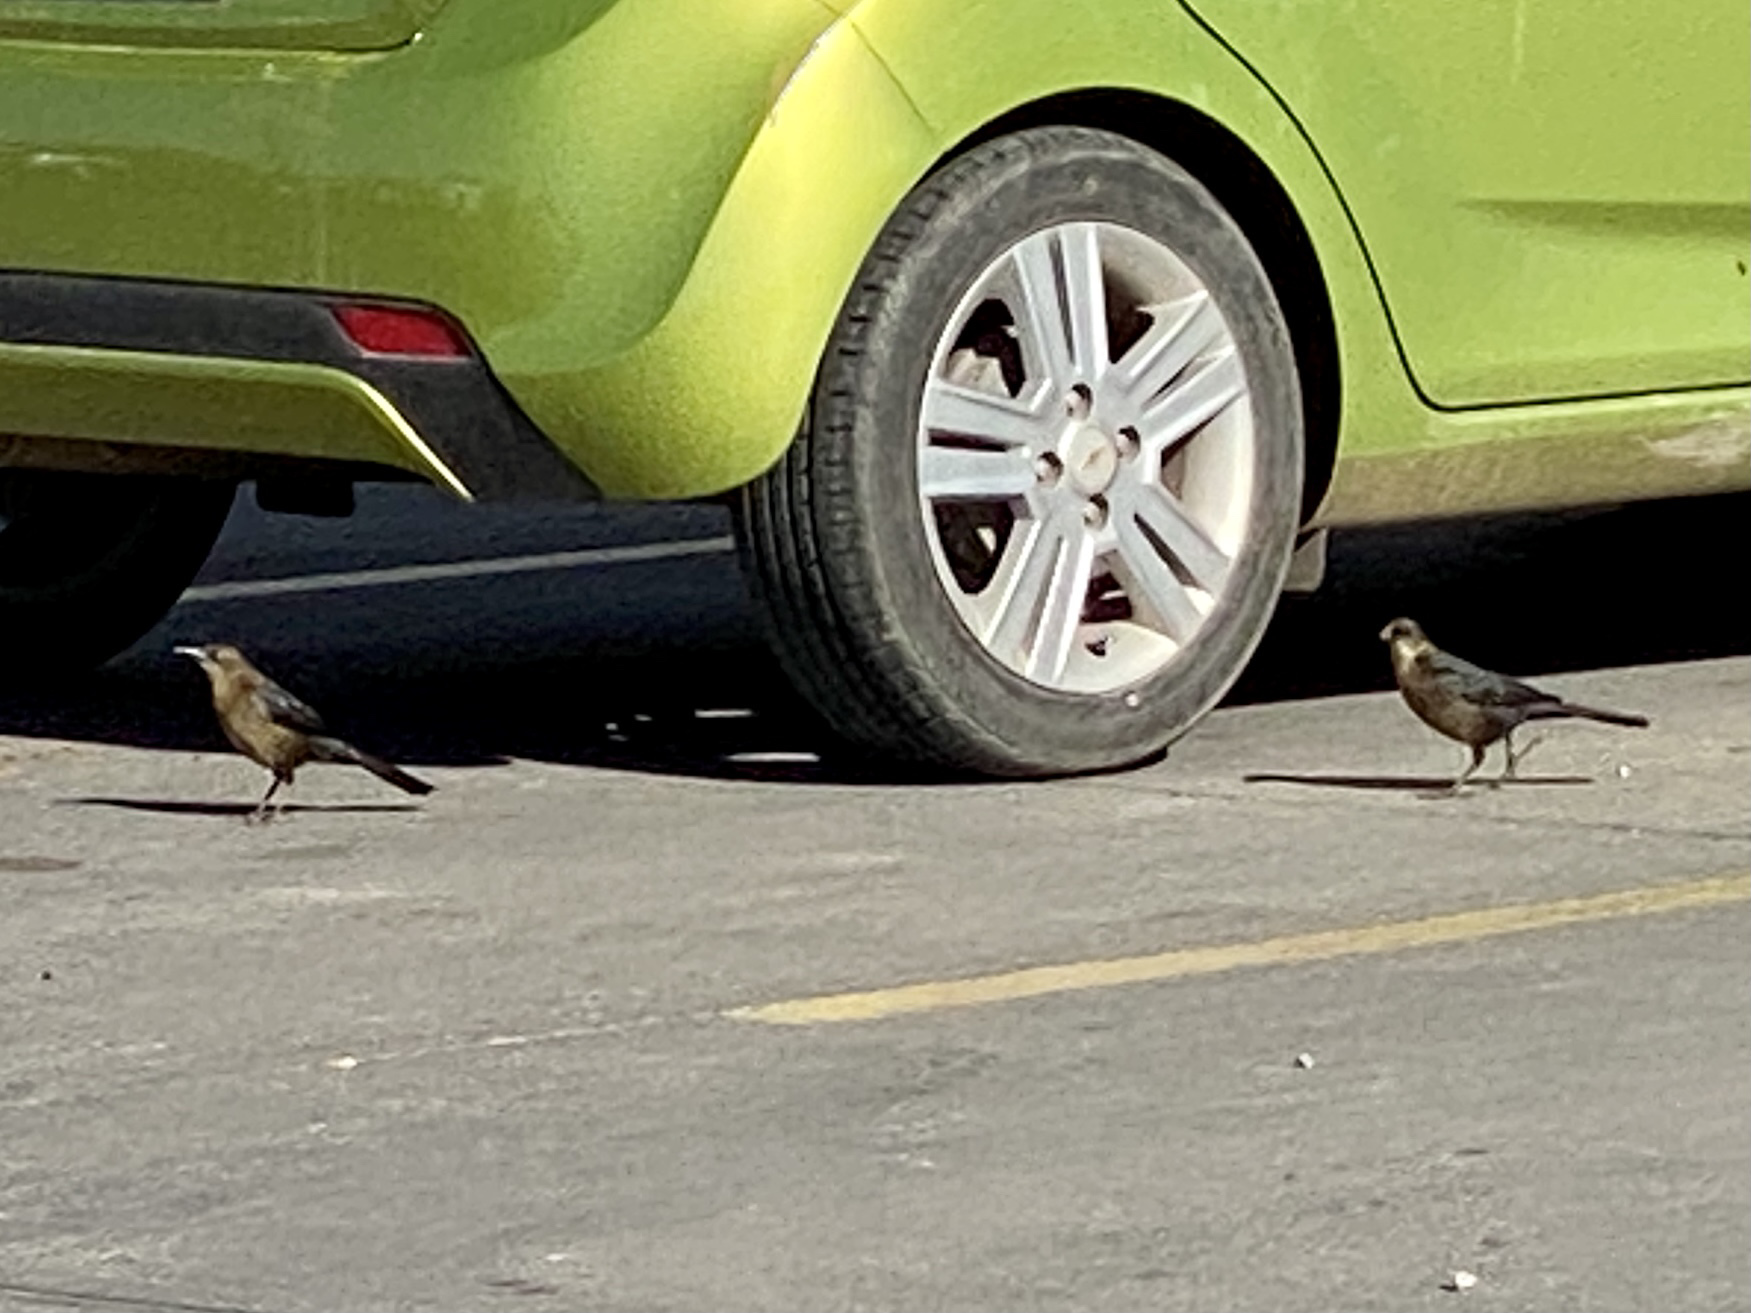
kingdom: Animalia
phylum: Chordata
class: Aves
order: Passeriformes
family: Icteridae
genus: Quiscalus
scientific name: Quiscalus mexicanus
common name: Great-tailed grackle
